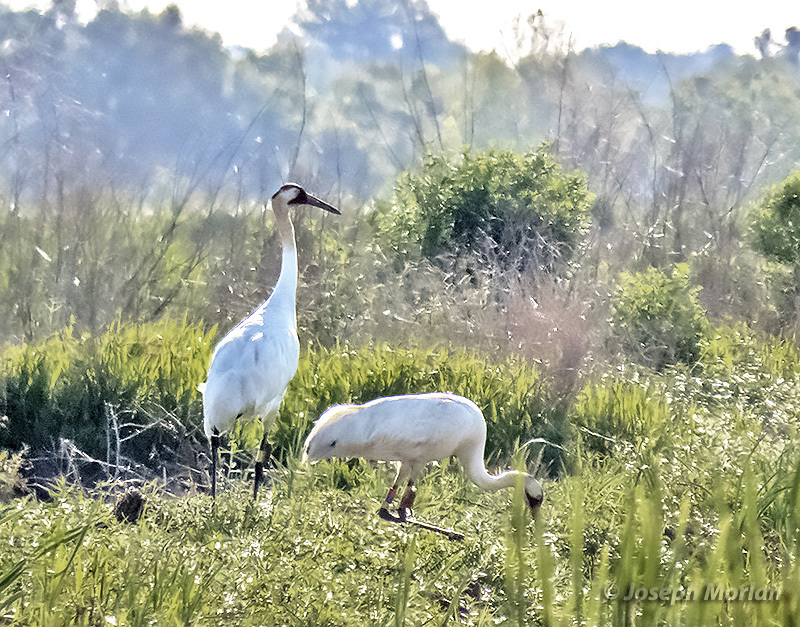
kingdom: Animalia
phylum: Chordata
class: Aves
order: Gruiformes
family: Gruidae
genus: Grus
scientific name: Grus americana
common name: Whooping crane
